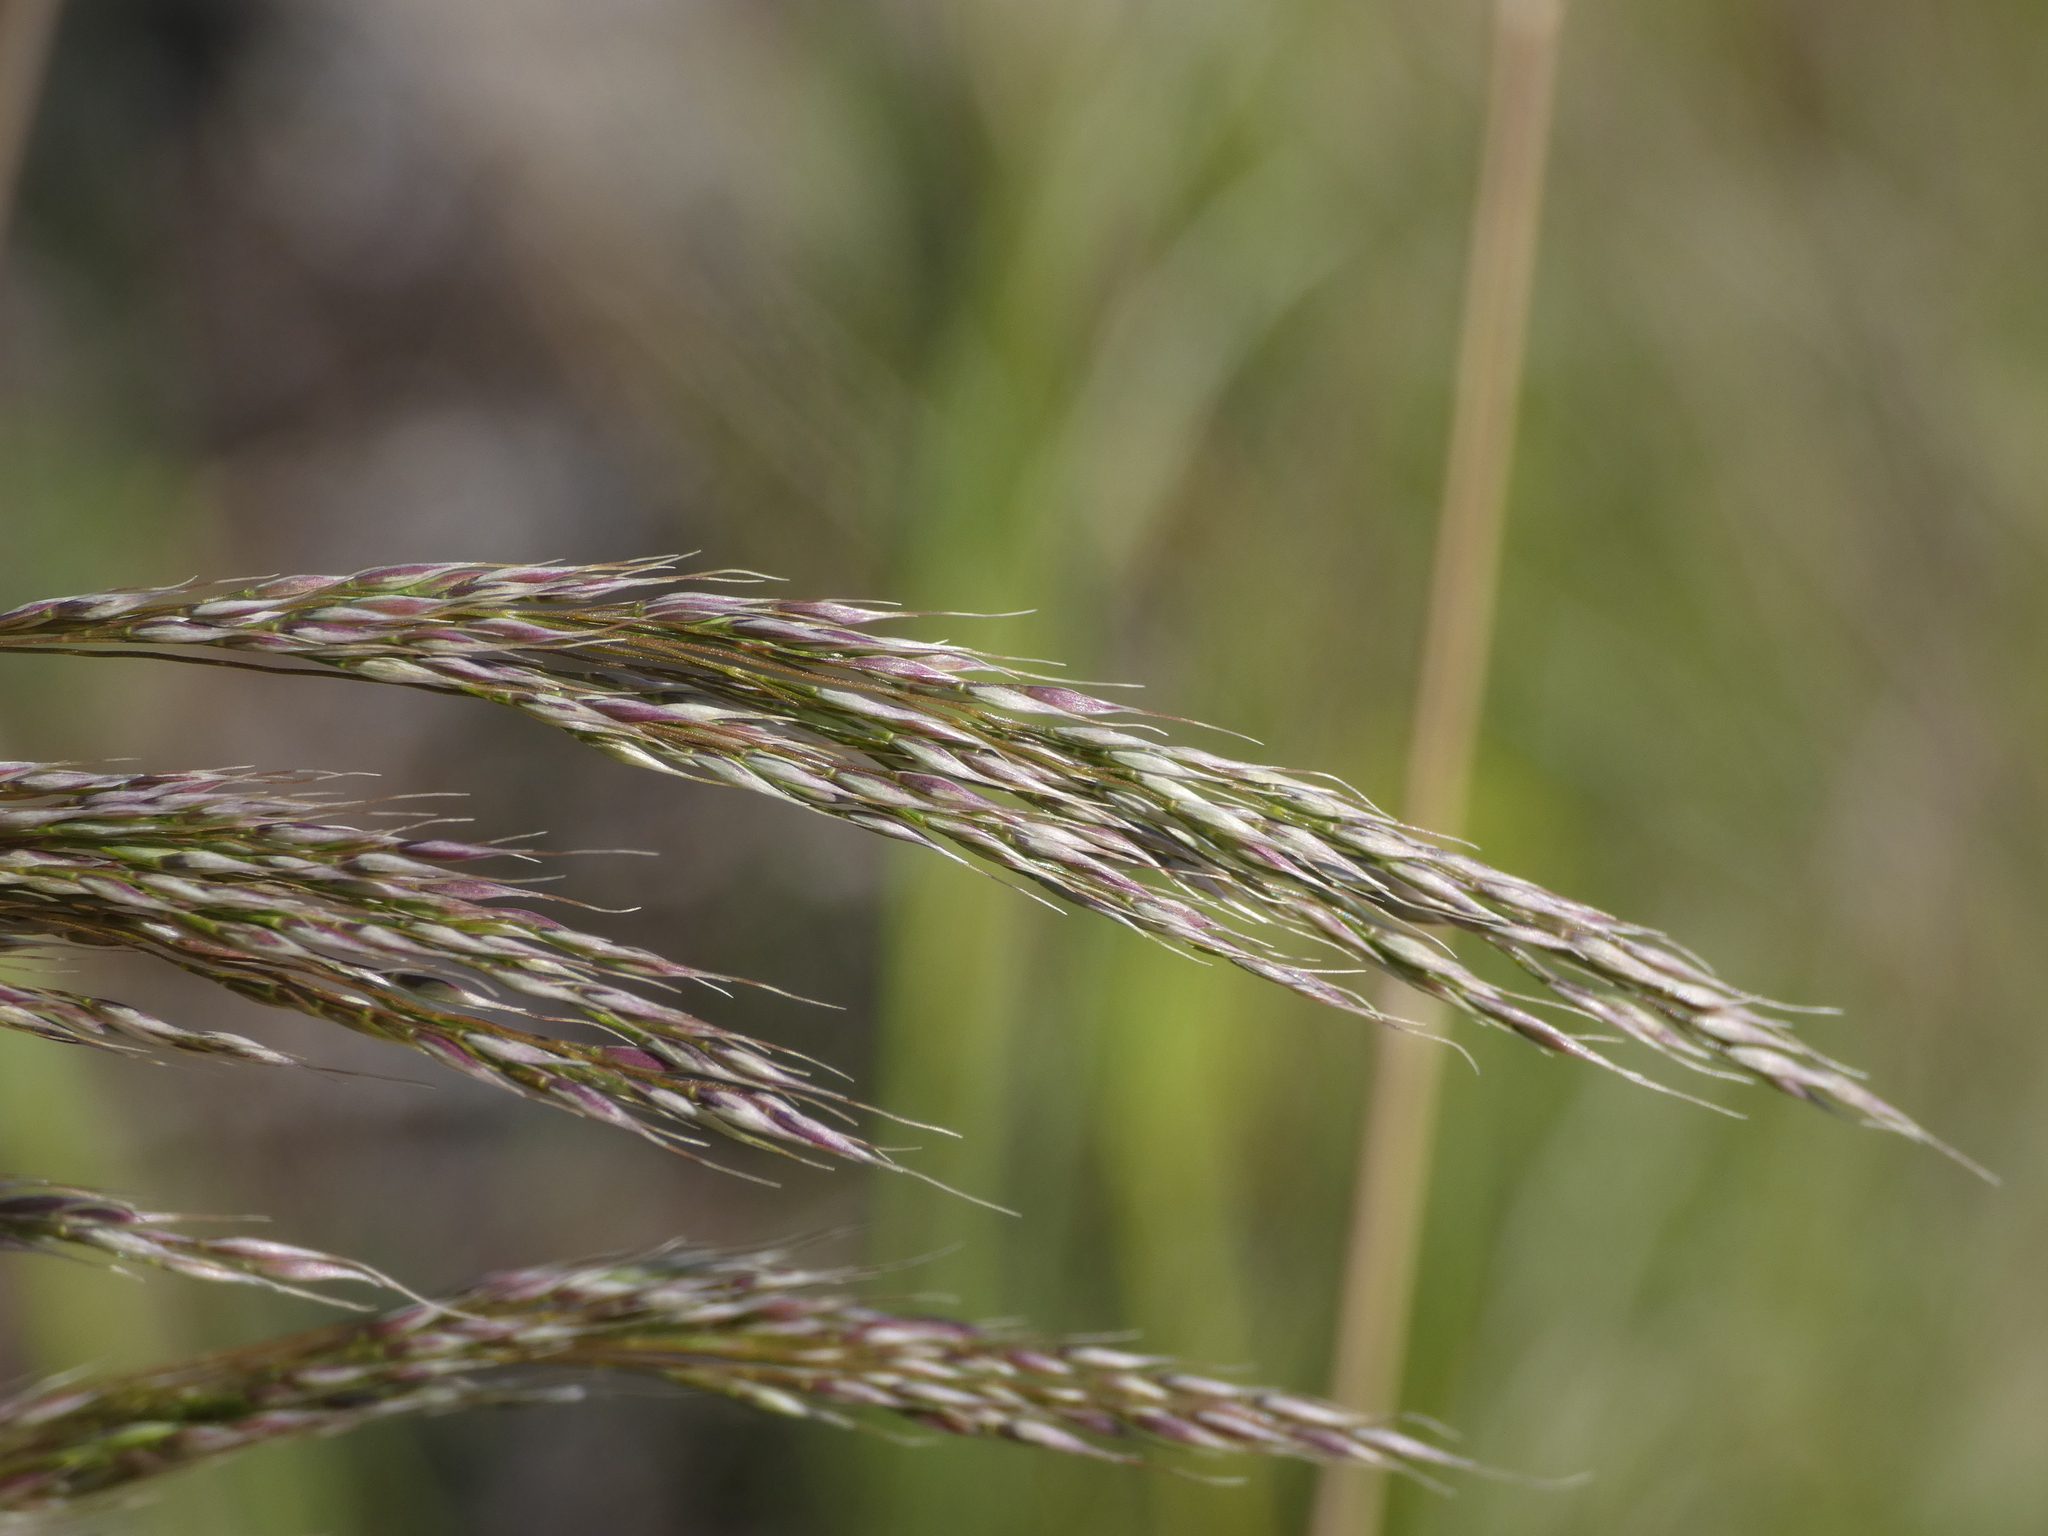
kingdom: Plantae
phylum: Tracheophyta
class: Liliopsida
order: Poales
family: Poaceae
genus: Oloptum
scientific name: Oloptum miliaceum
